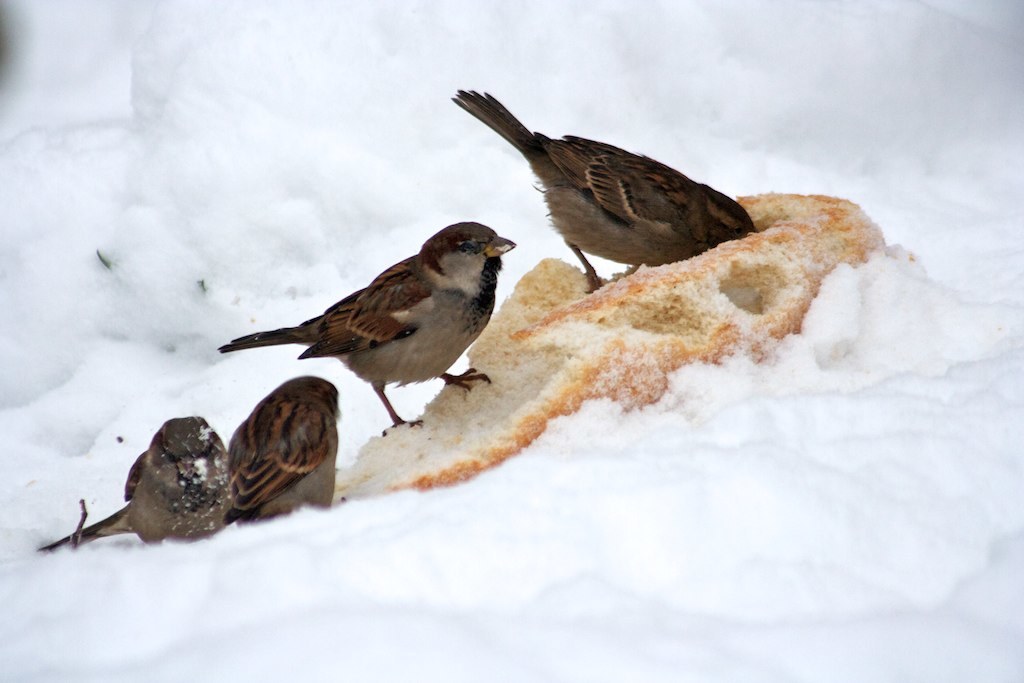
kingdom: Animalia
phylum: Chordata
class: Aves
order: Passeriformes
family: Passeridae
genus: Passer
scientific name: Passer domesticus
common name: House sparrow
